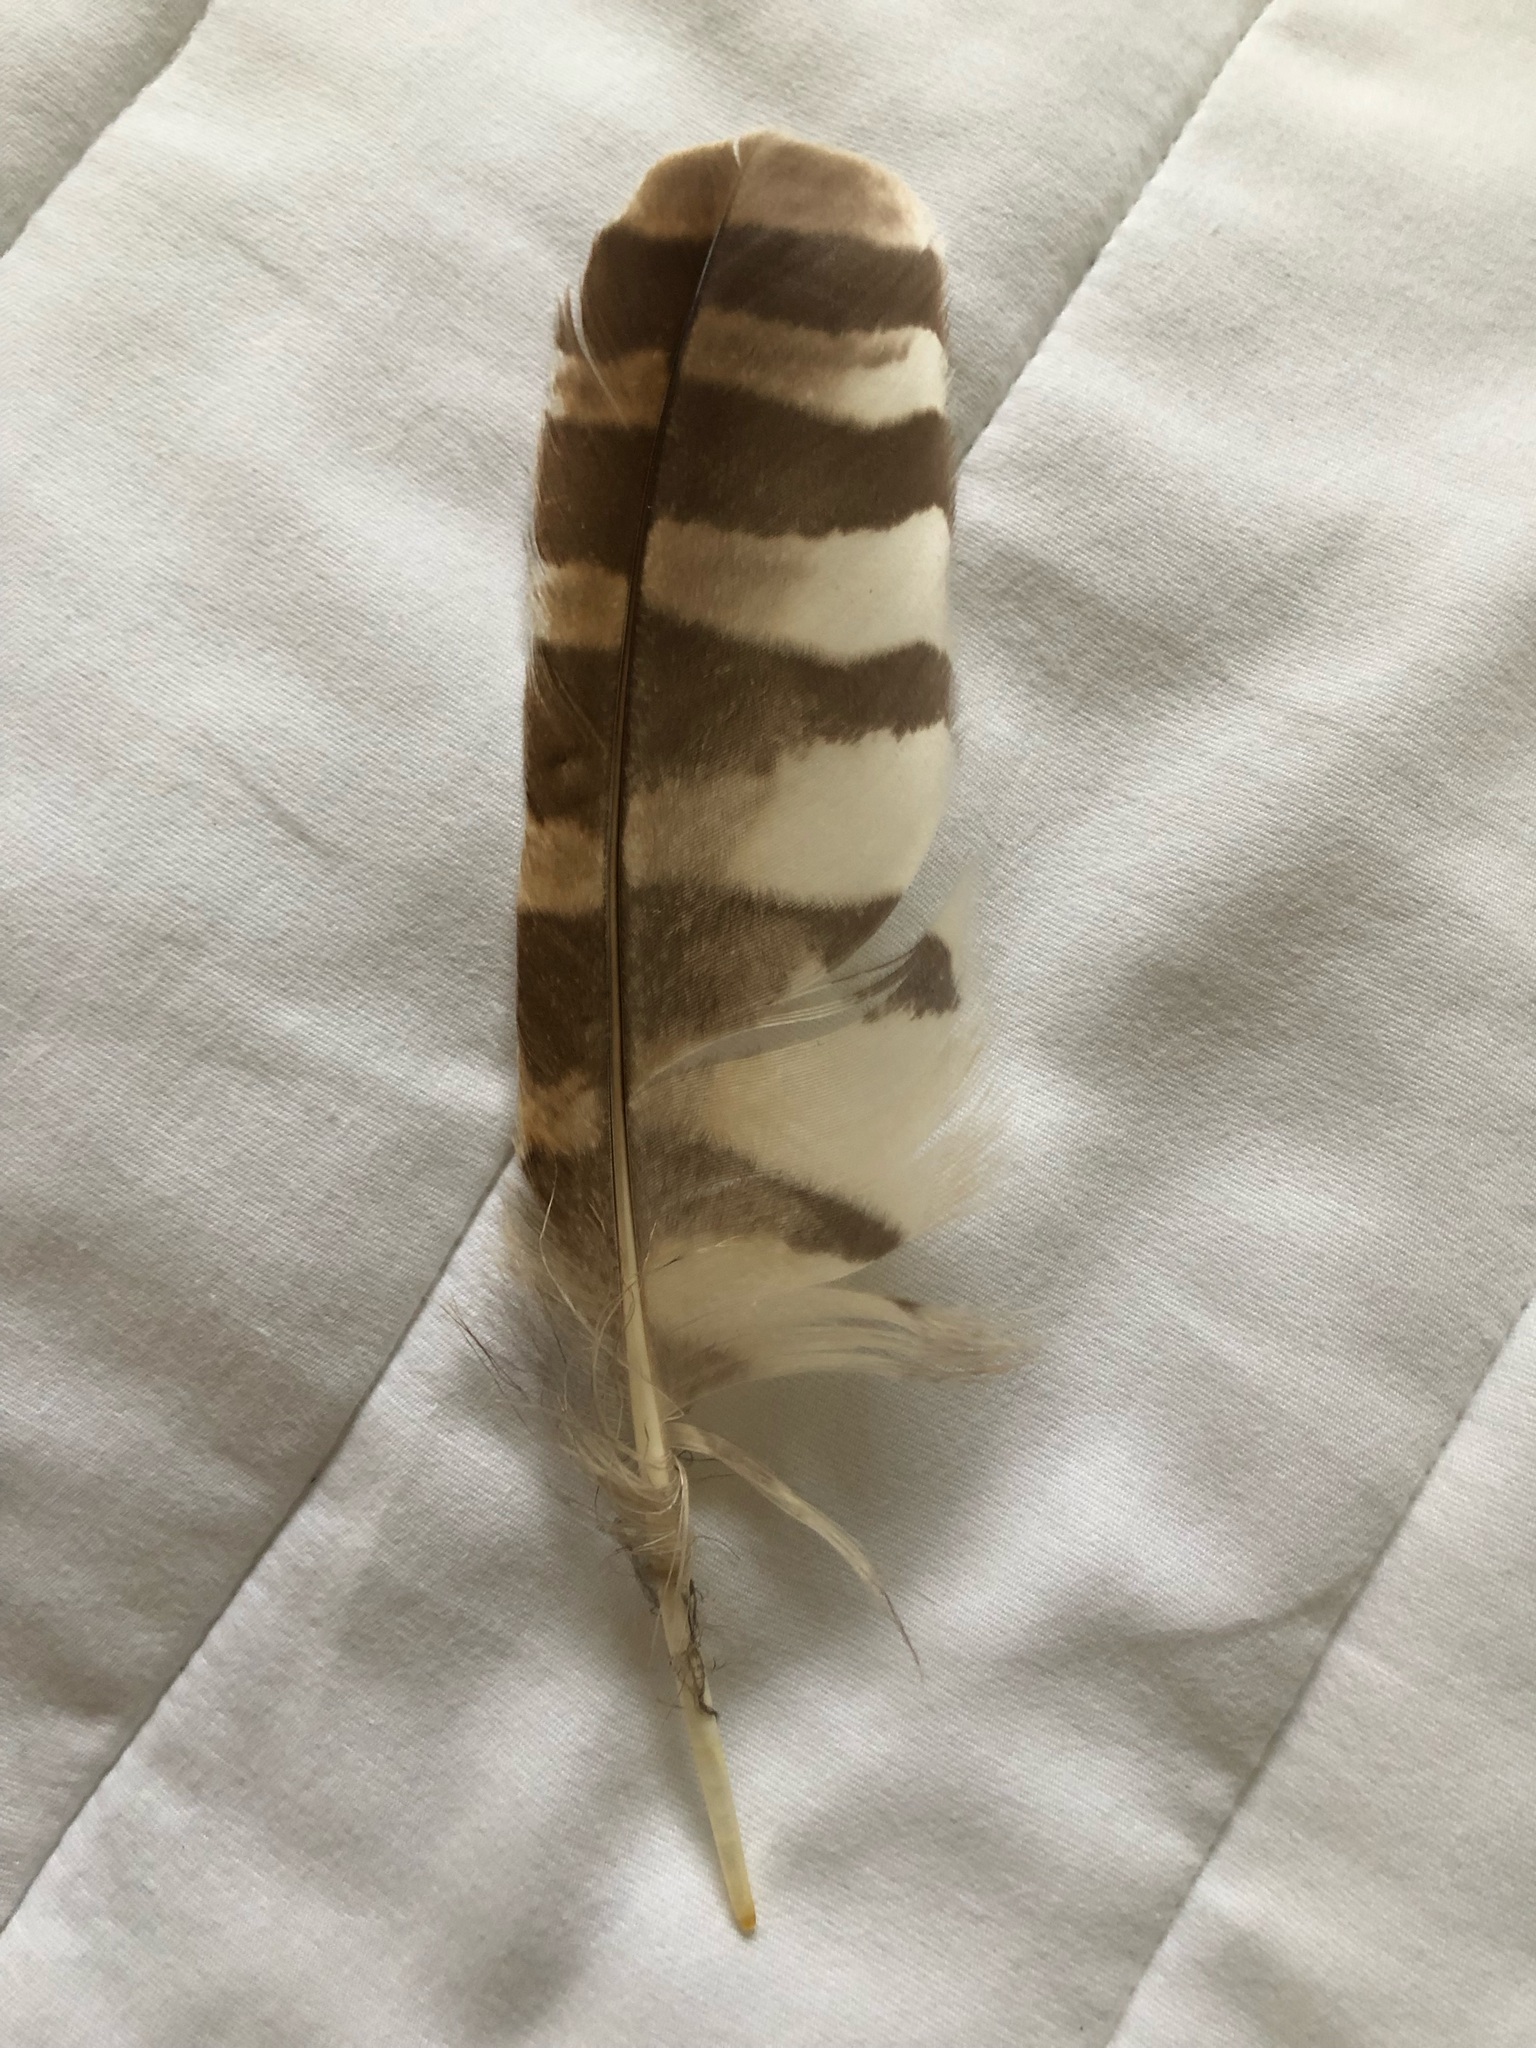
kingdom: Animalia
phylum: Chordata
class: Aves
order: Strigiformes
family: Strigidae
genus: Strix
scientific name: Strix varia
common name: Barred owl
